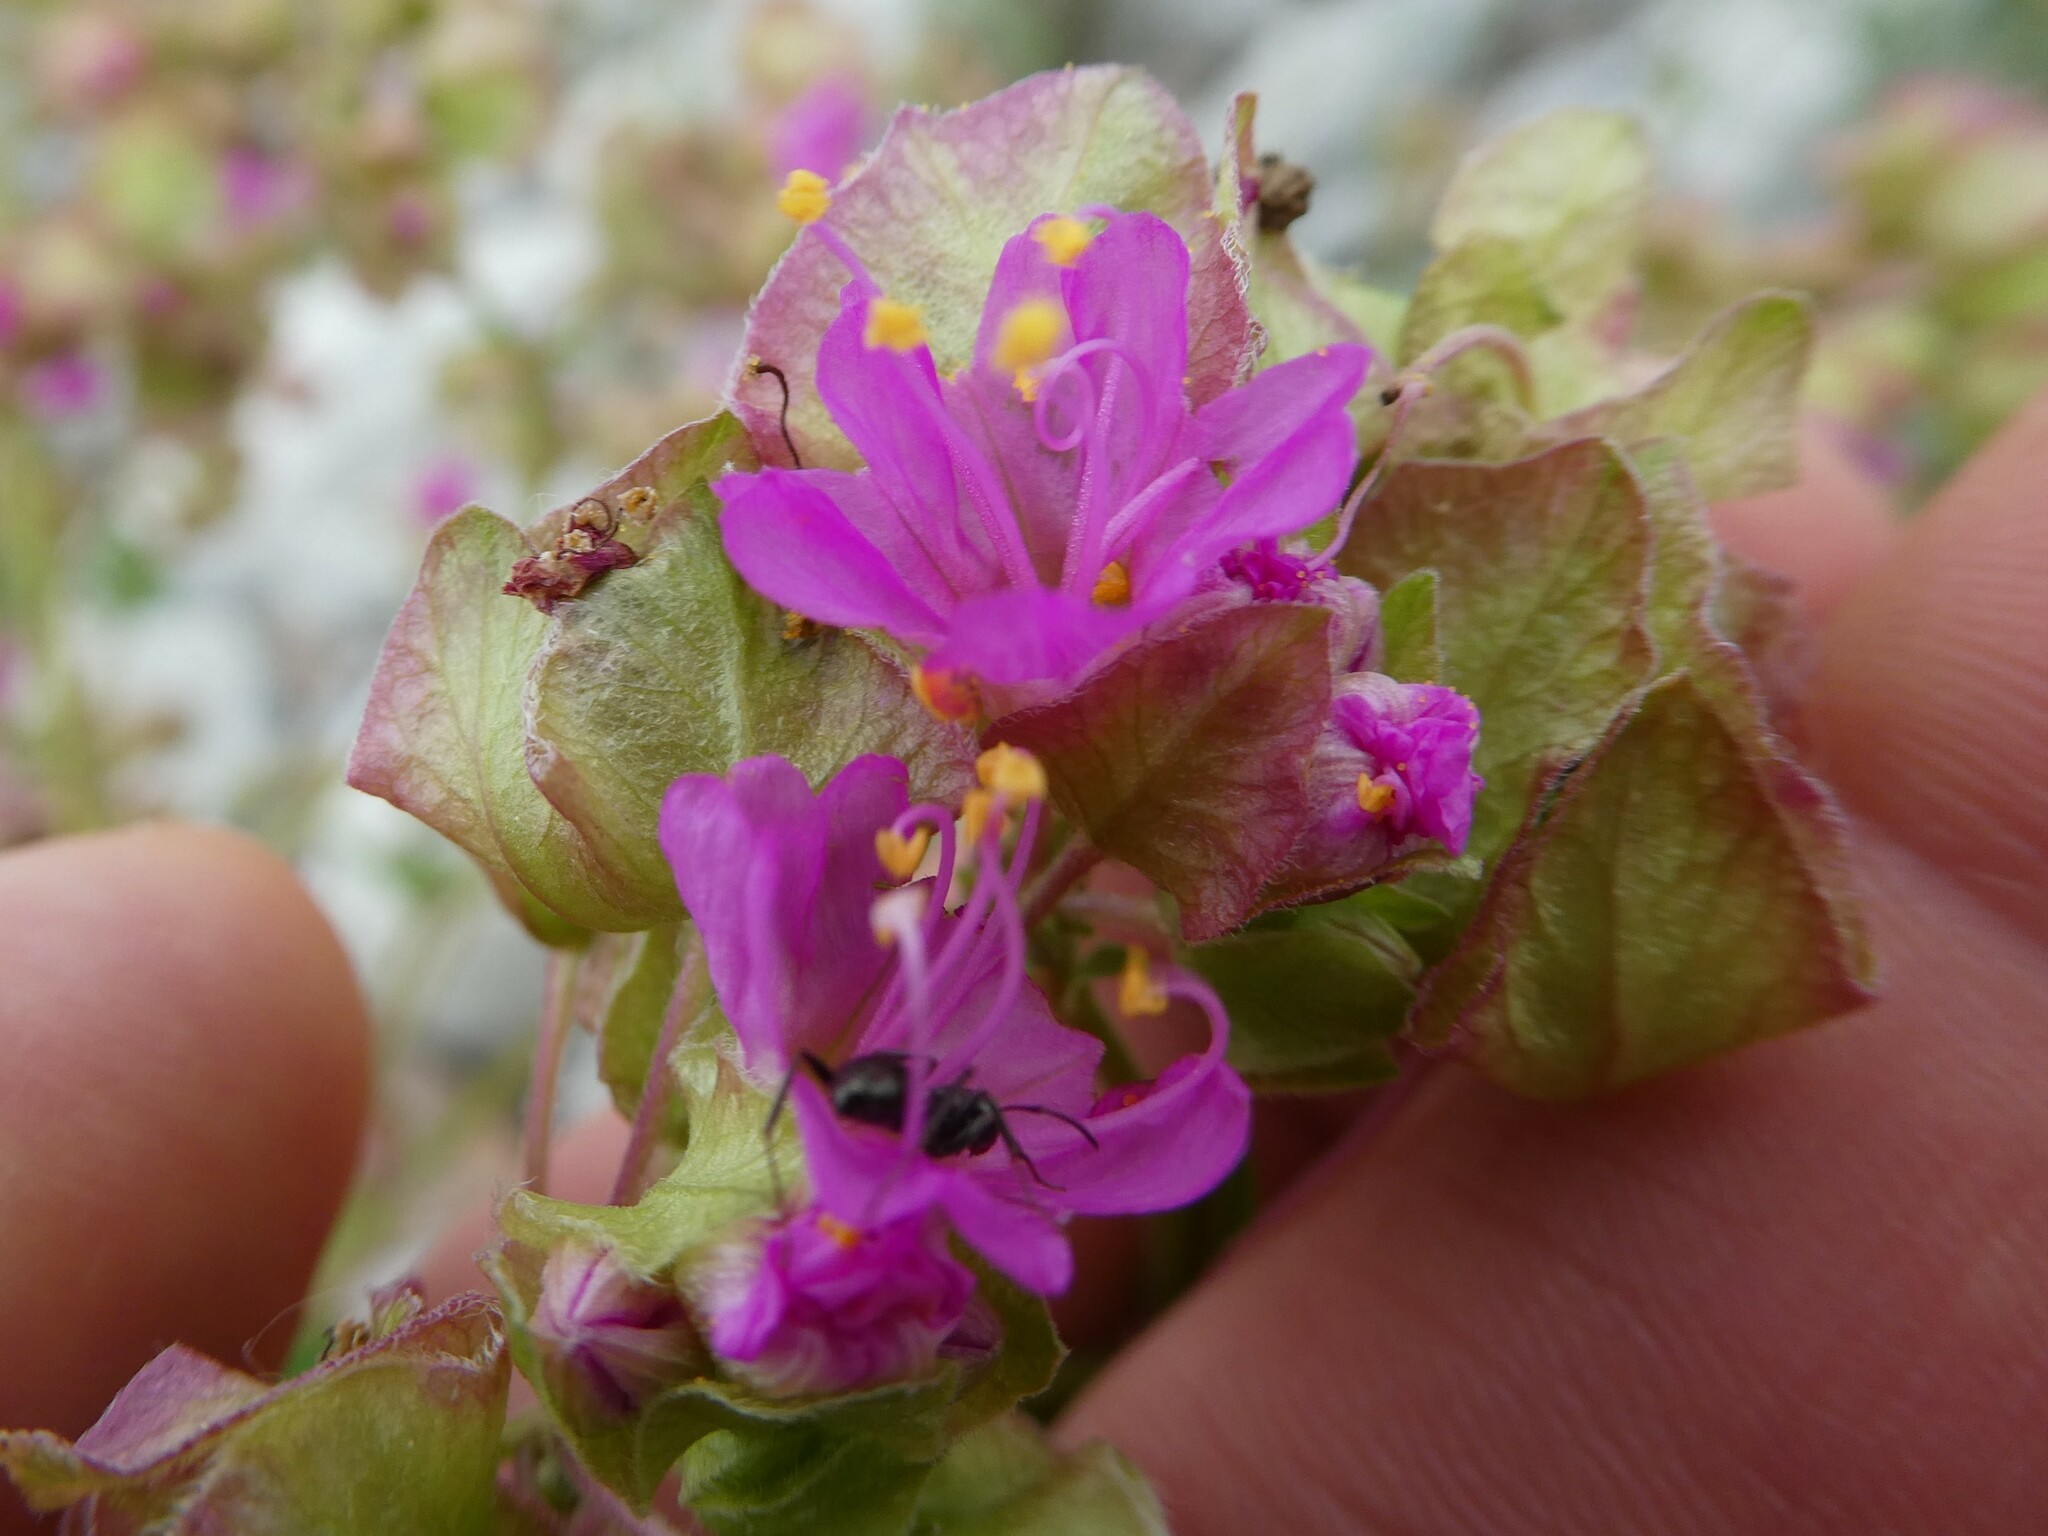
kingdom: Plantae
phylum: Tracheophyta
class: Magnoliopsida
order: Caryophyllales
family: Nyctaginaceae
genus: Mirabilis
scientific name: Mirabilis nyctaginea
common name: Umbrella wort
